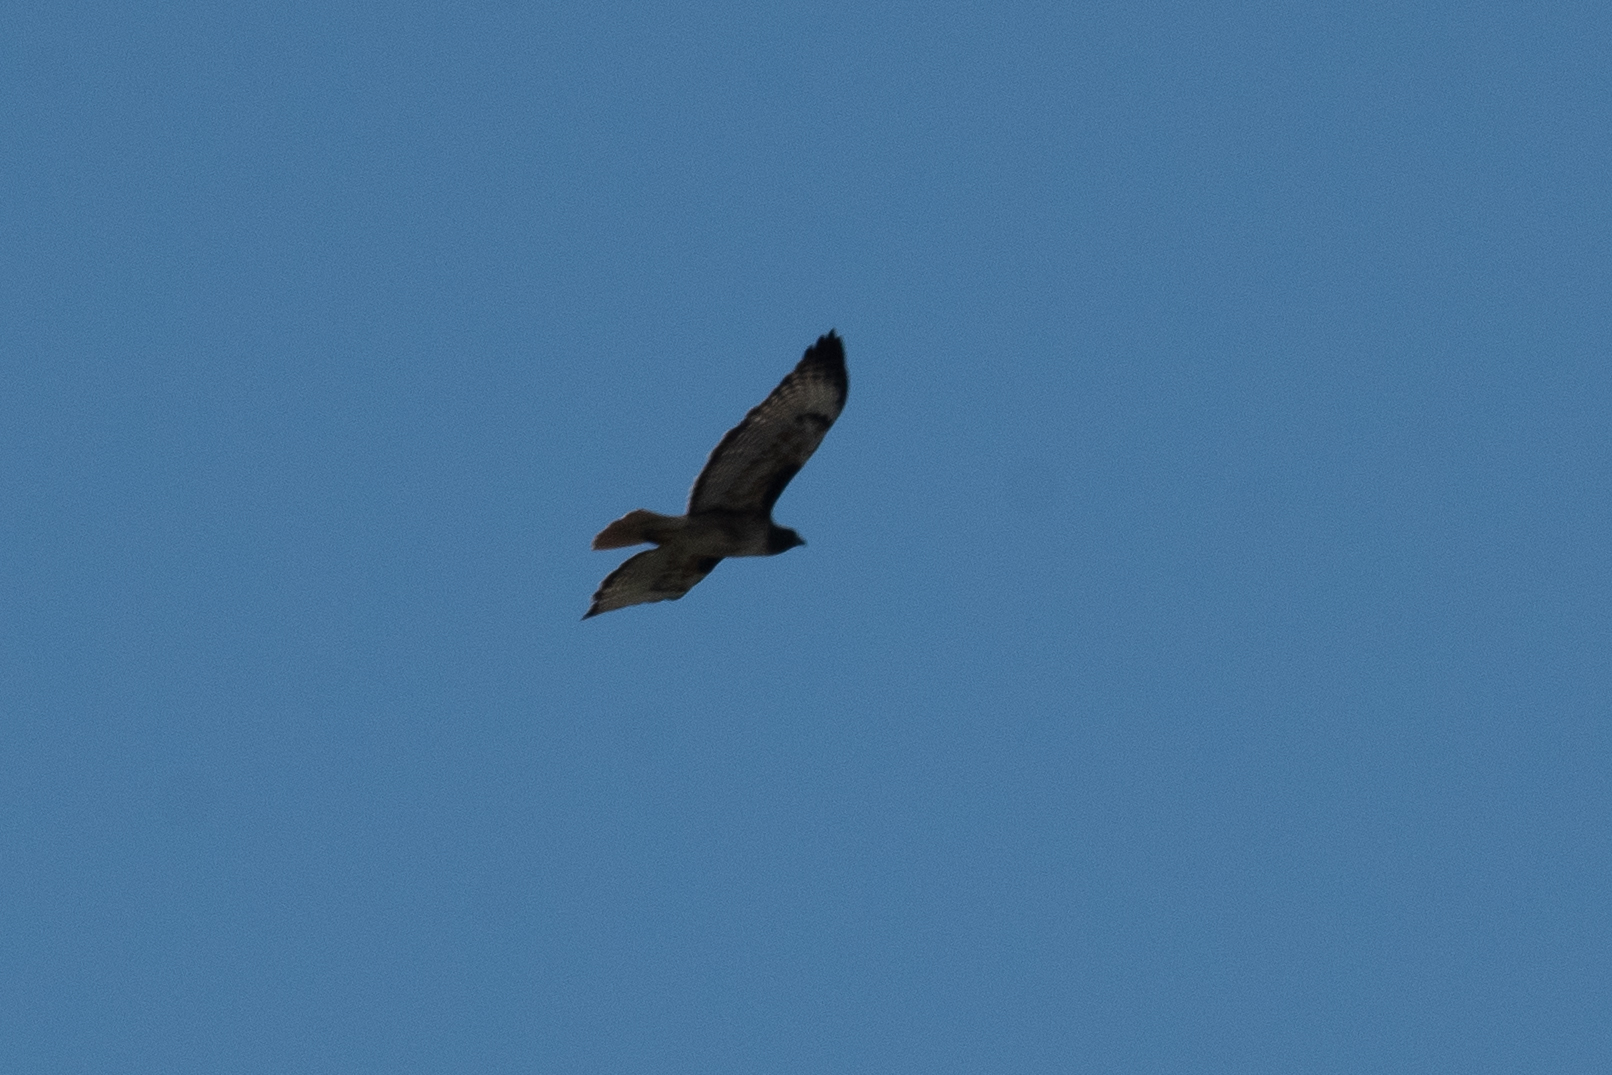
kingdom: Animalia
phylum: Chordata
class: Aves
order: Accipitriformes
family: Accipitridae
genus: Buteo
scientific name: Buteo jamaicensis
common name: Red-tailed hawk
